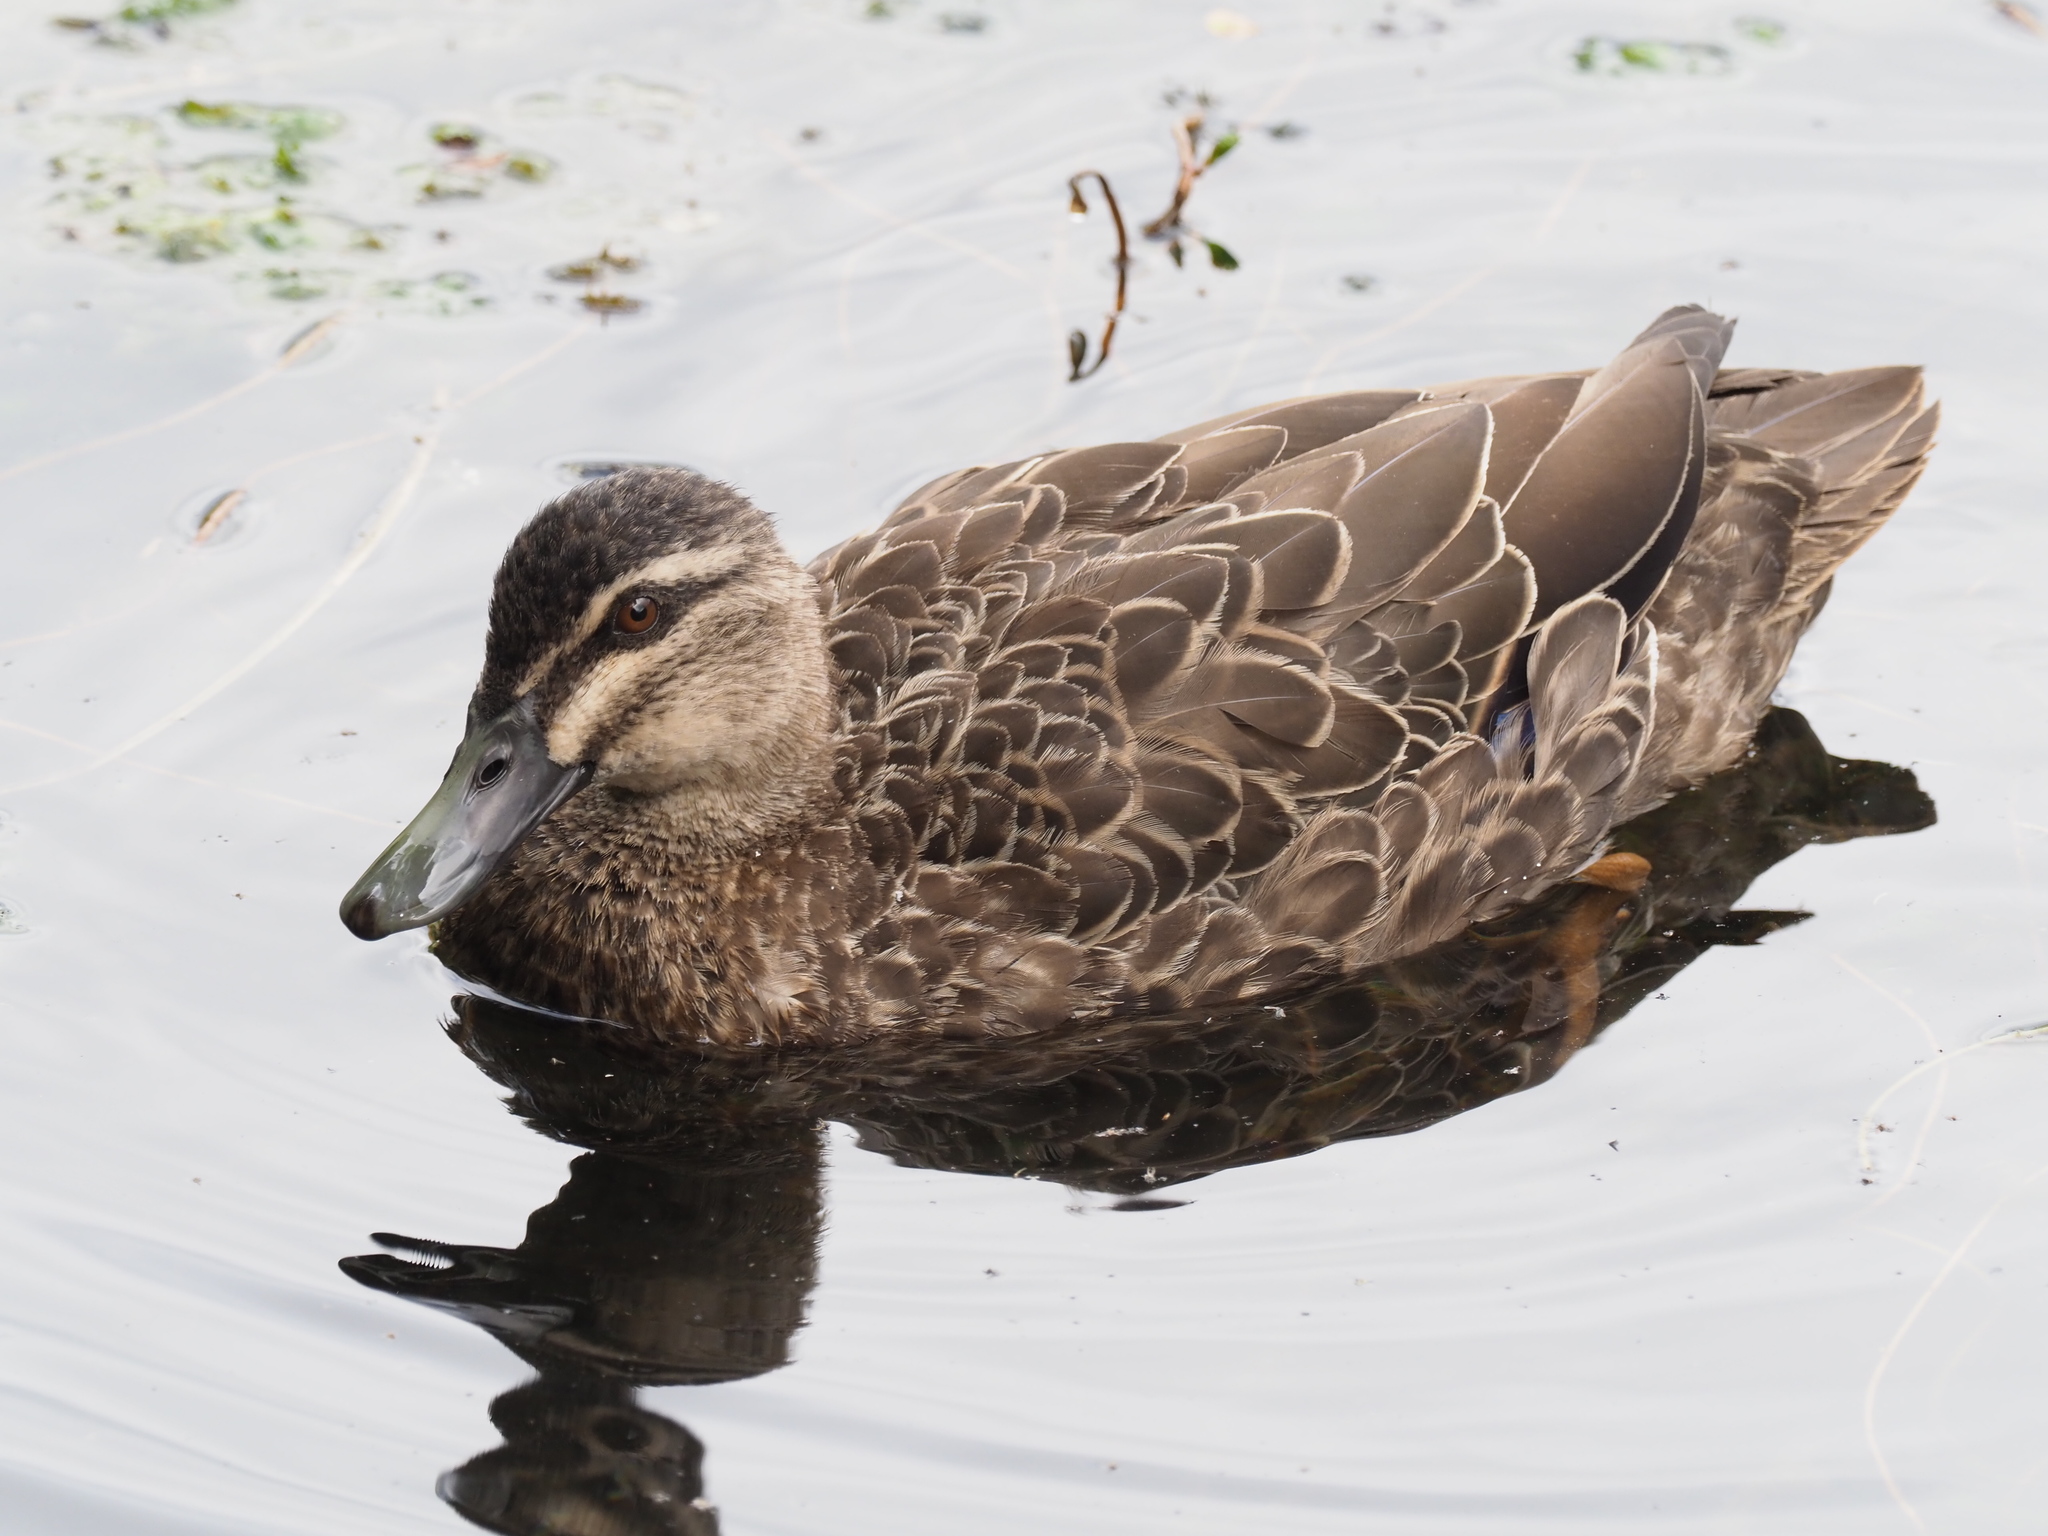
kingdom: Animalia
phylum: Chordata
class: Aves
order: Anseriformes
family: Anatidae
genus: Anas
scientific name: Anas
